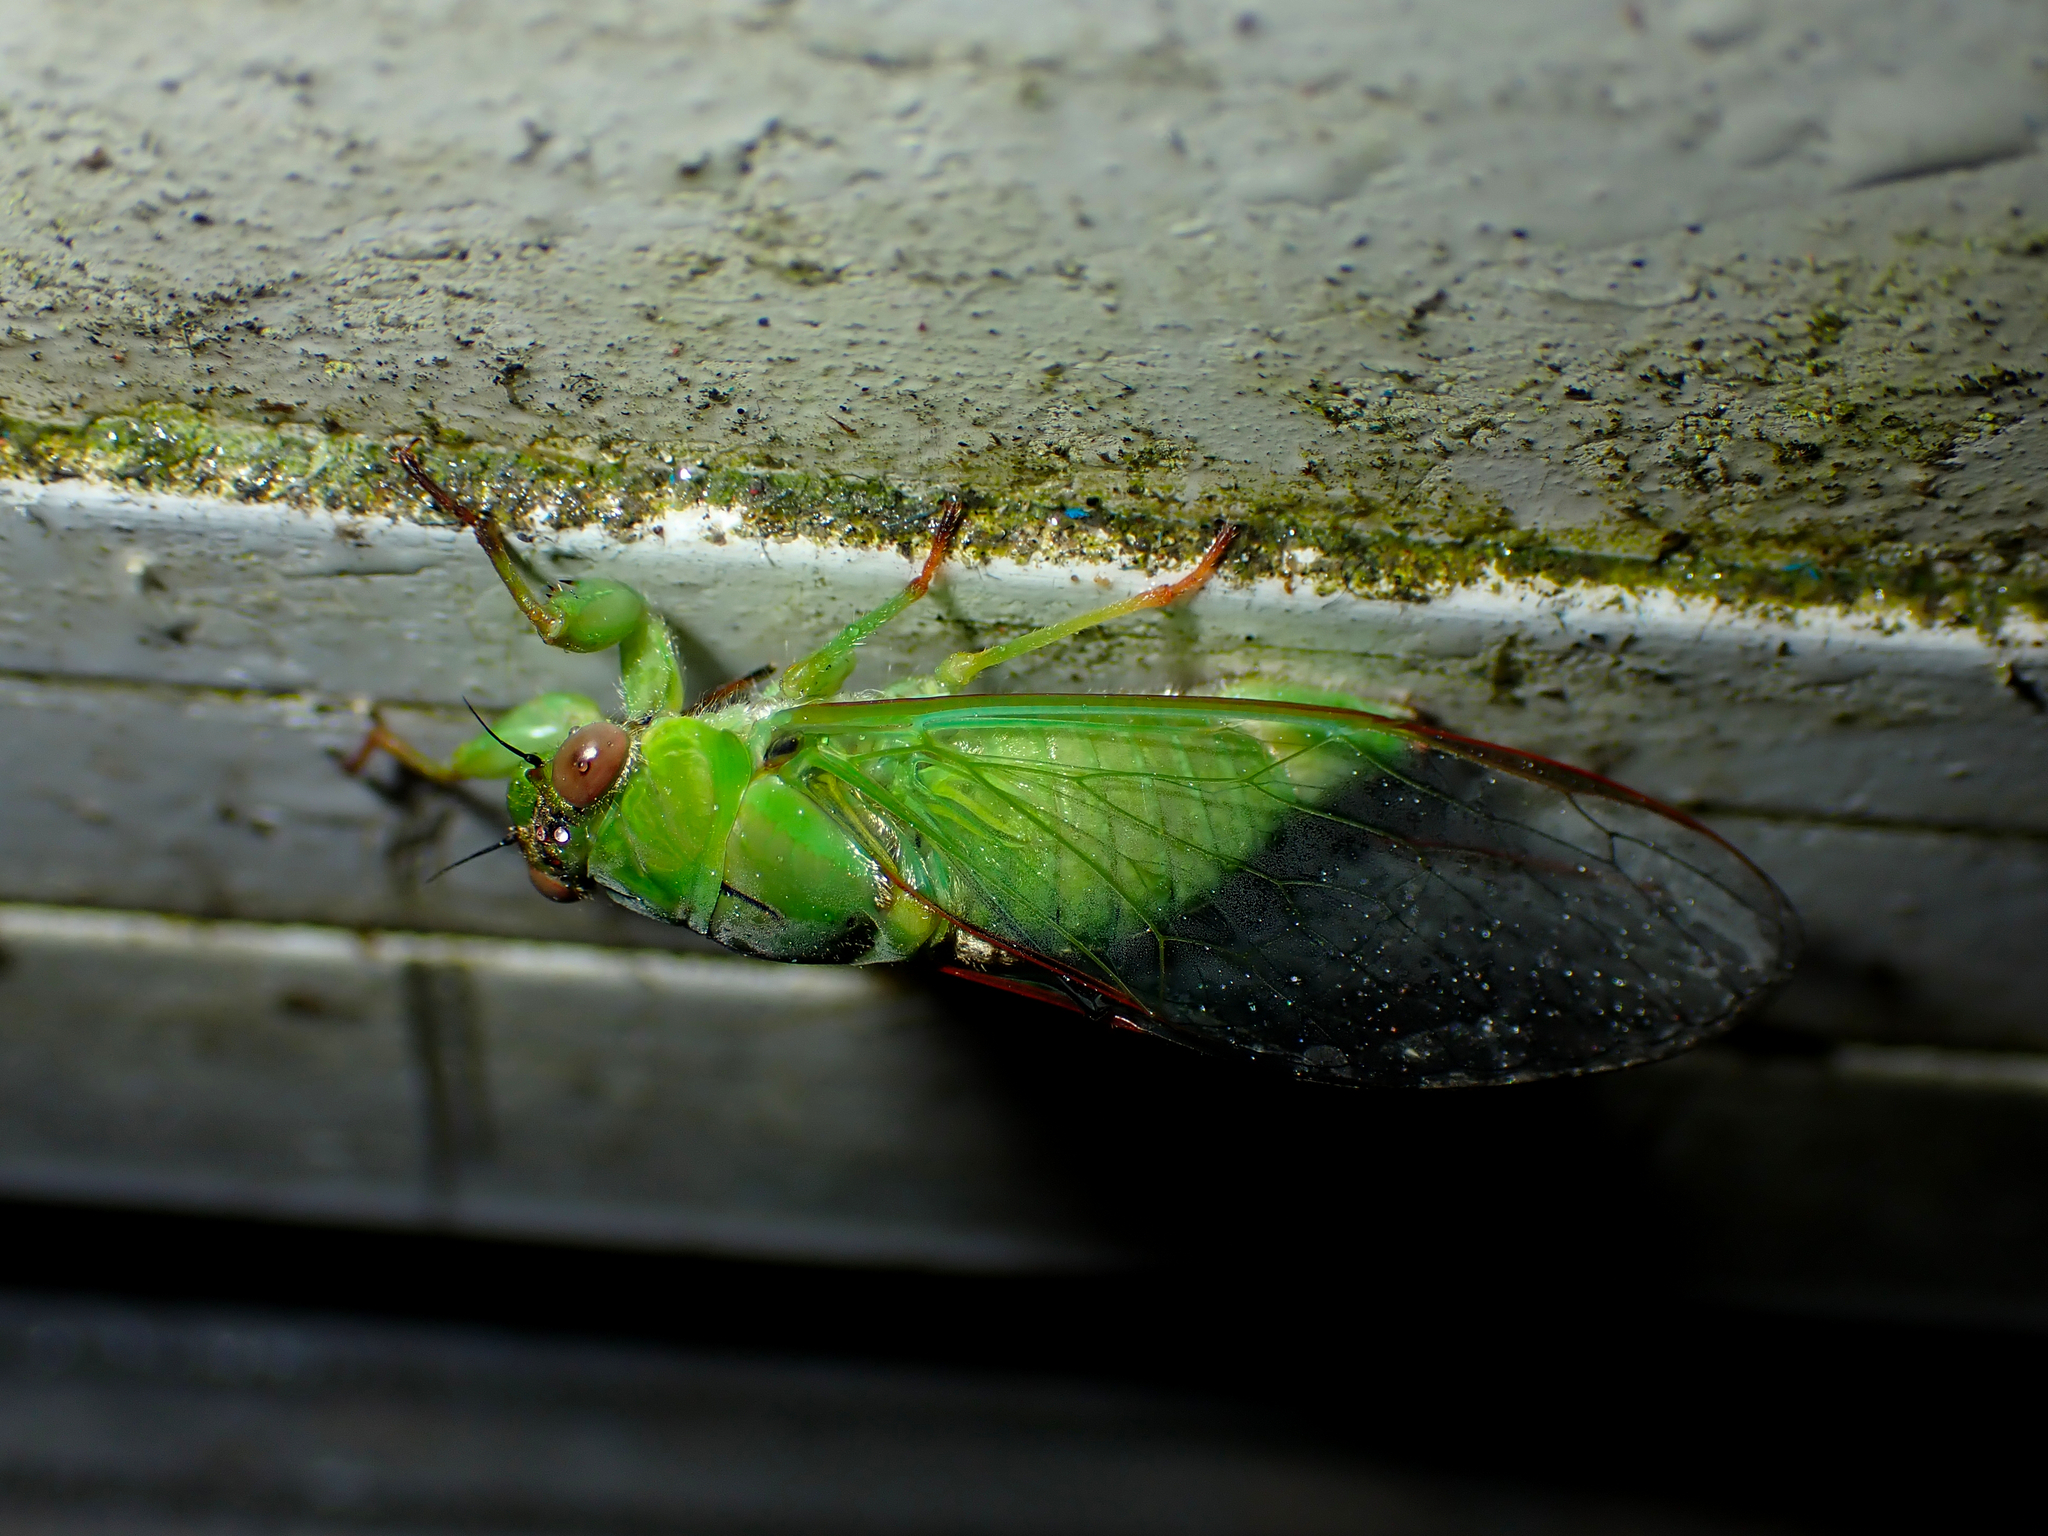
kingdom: Animalia
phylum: Arthropoda
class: Insecta
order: Hemiptera
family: Cicadidae
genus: Kikihia
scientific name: Kikihia ochrina
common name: April green cicada
